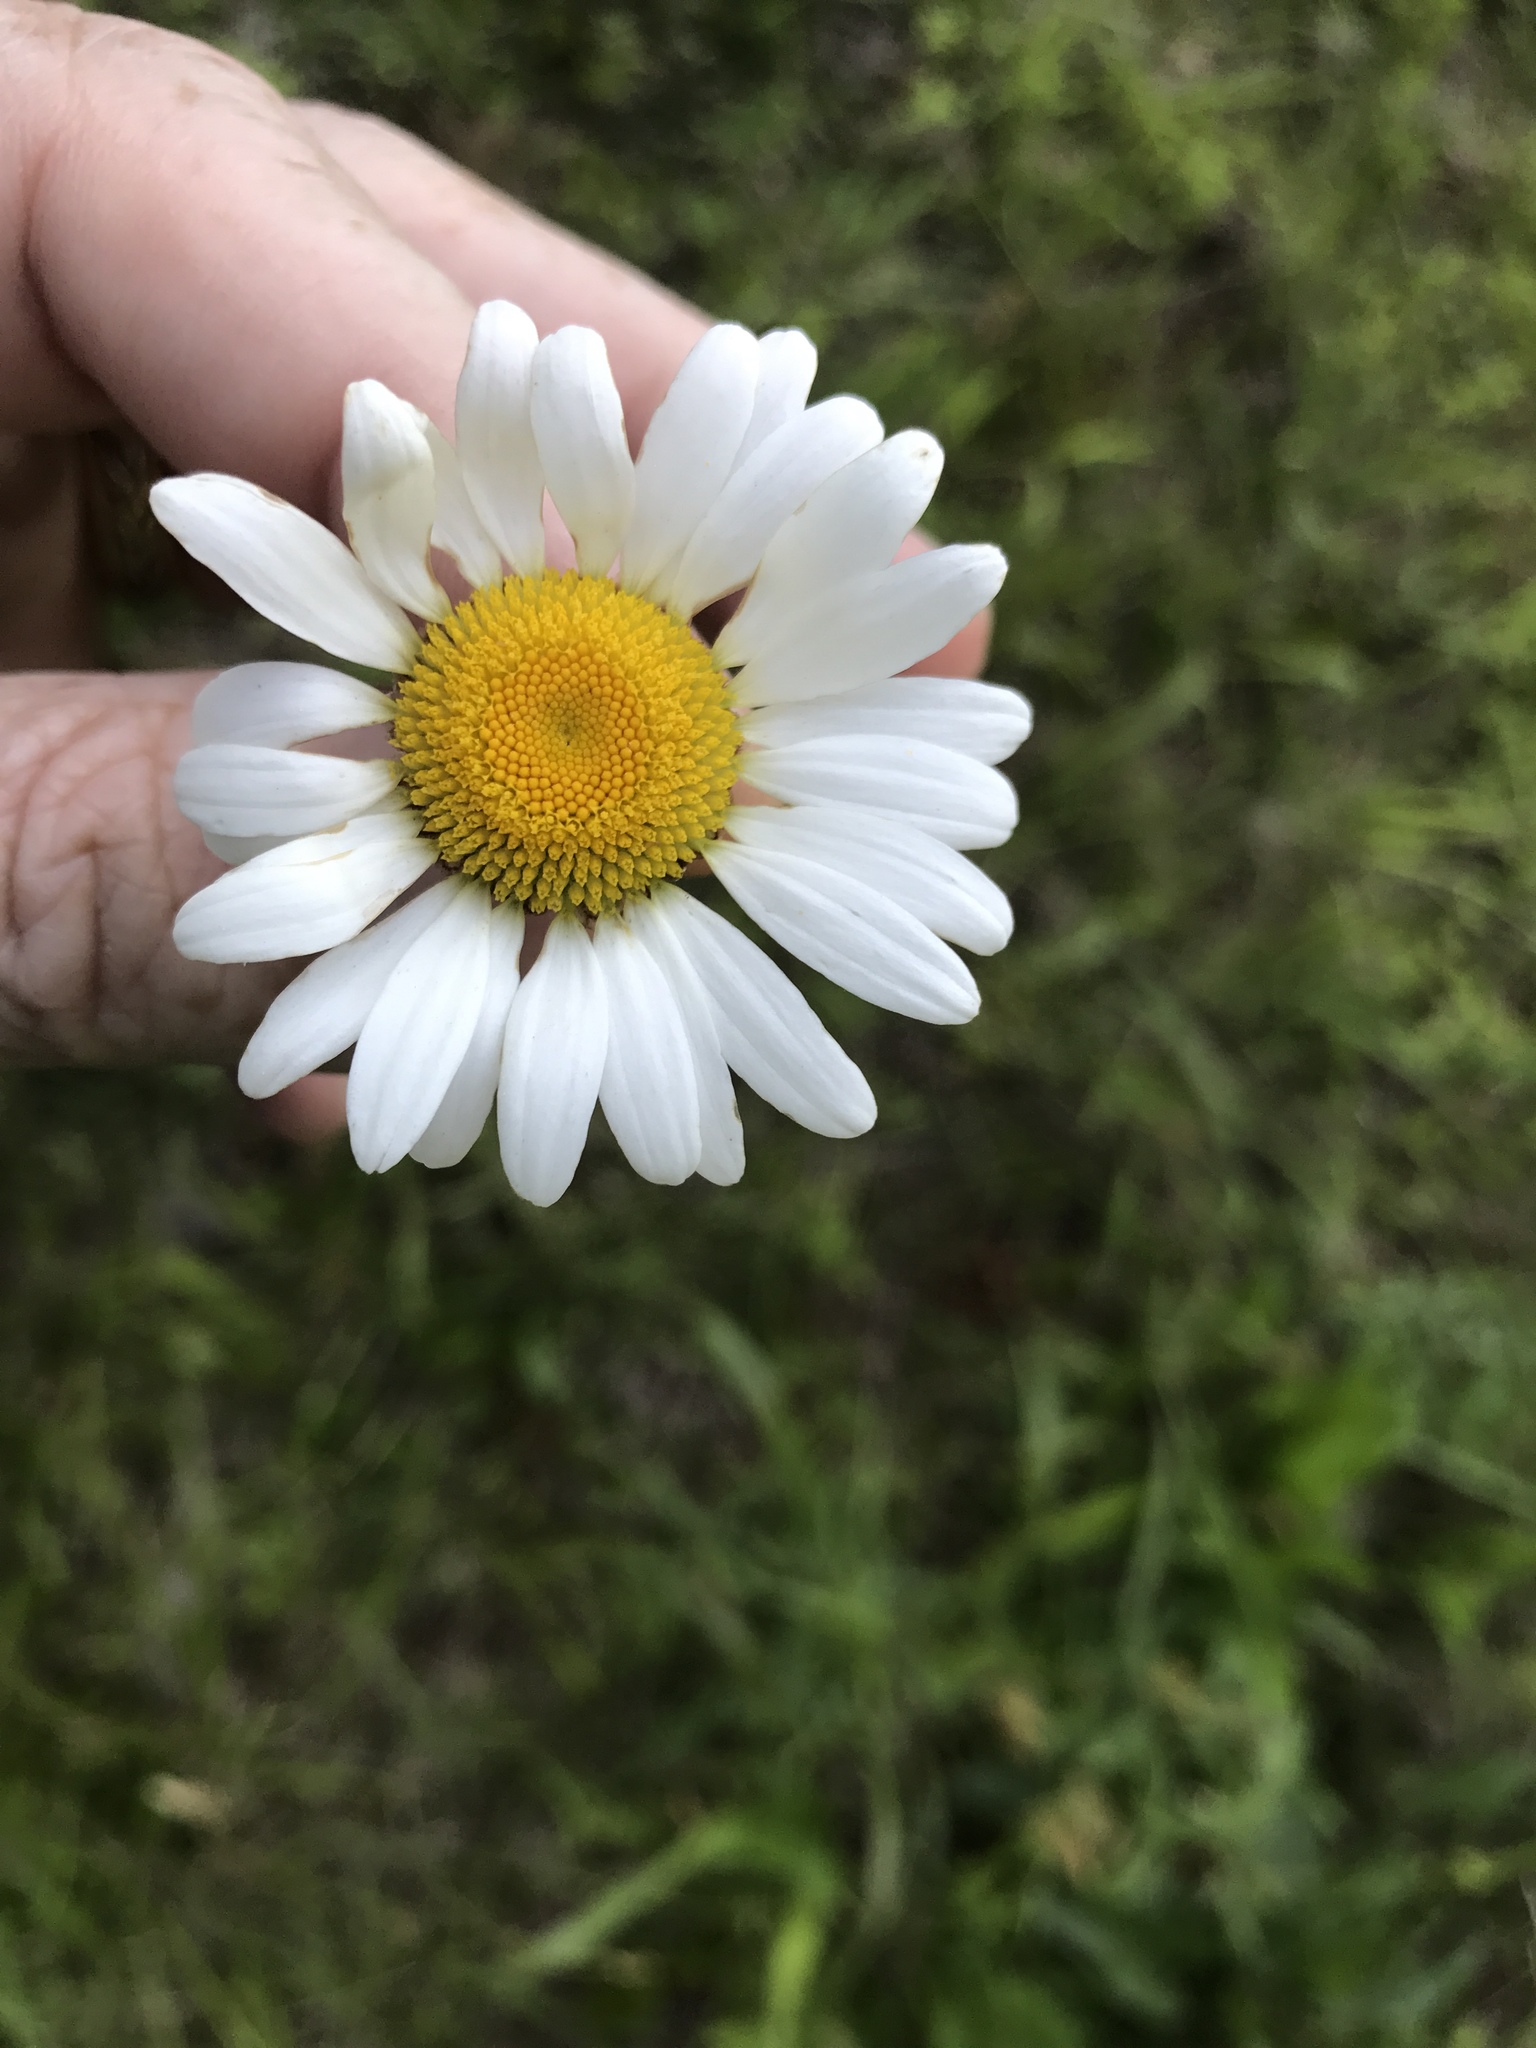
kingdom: Plantae
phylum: Tracheophyta
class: Magnoliopsida
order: Asterales
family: Asteraceae
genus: Leucanthemum
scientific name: Leucanthemum vulgare
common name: Oxeye daisy
